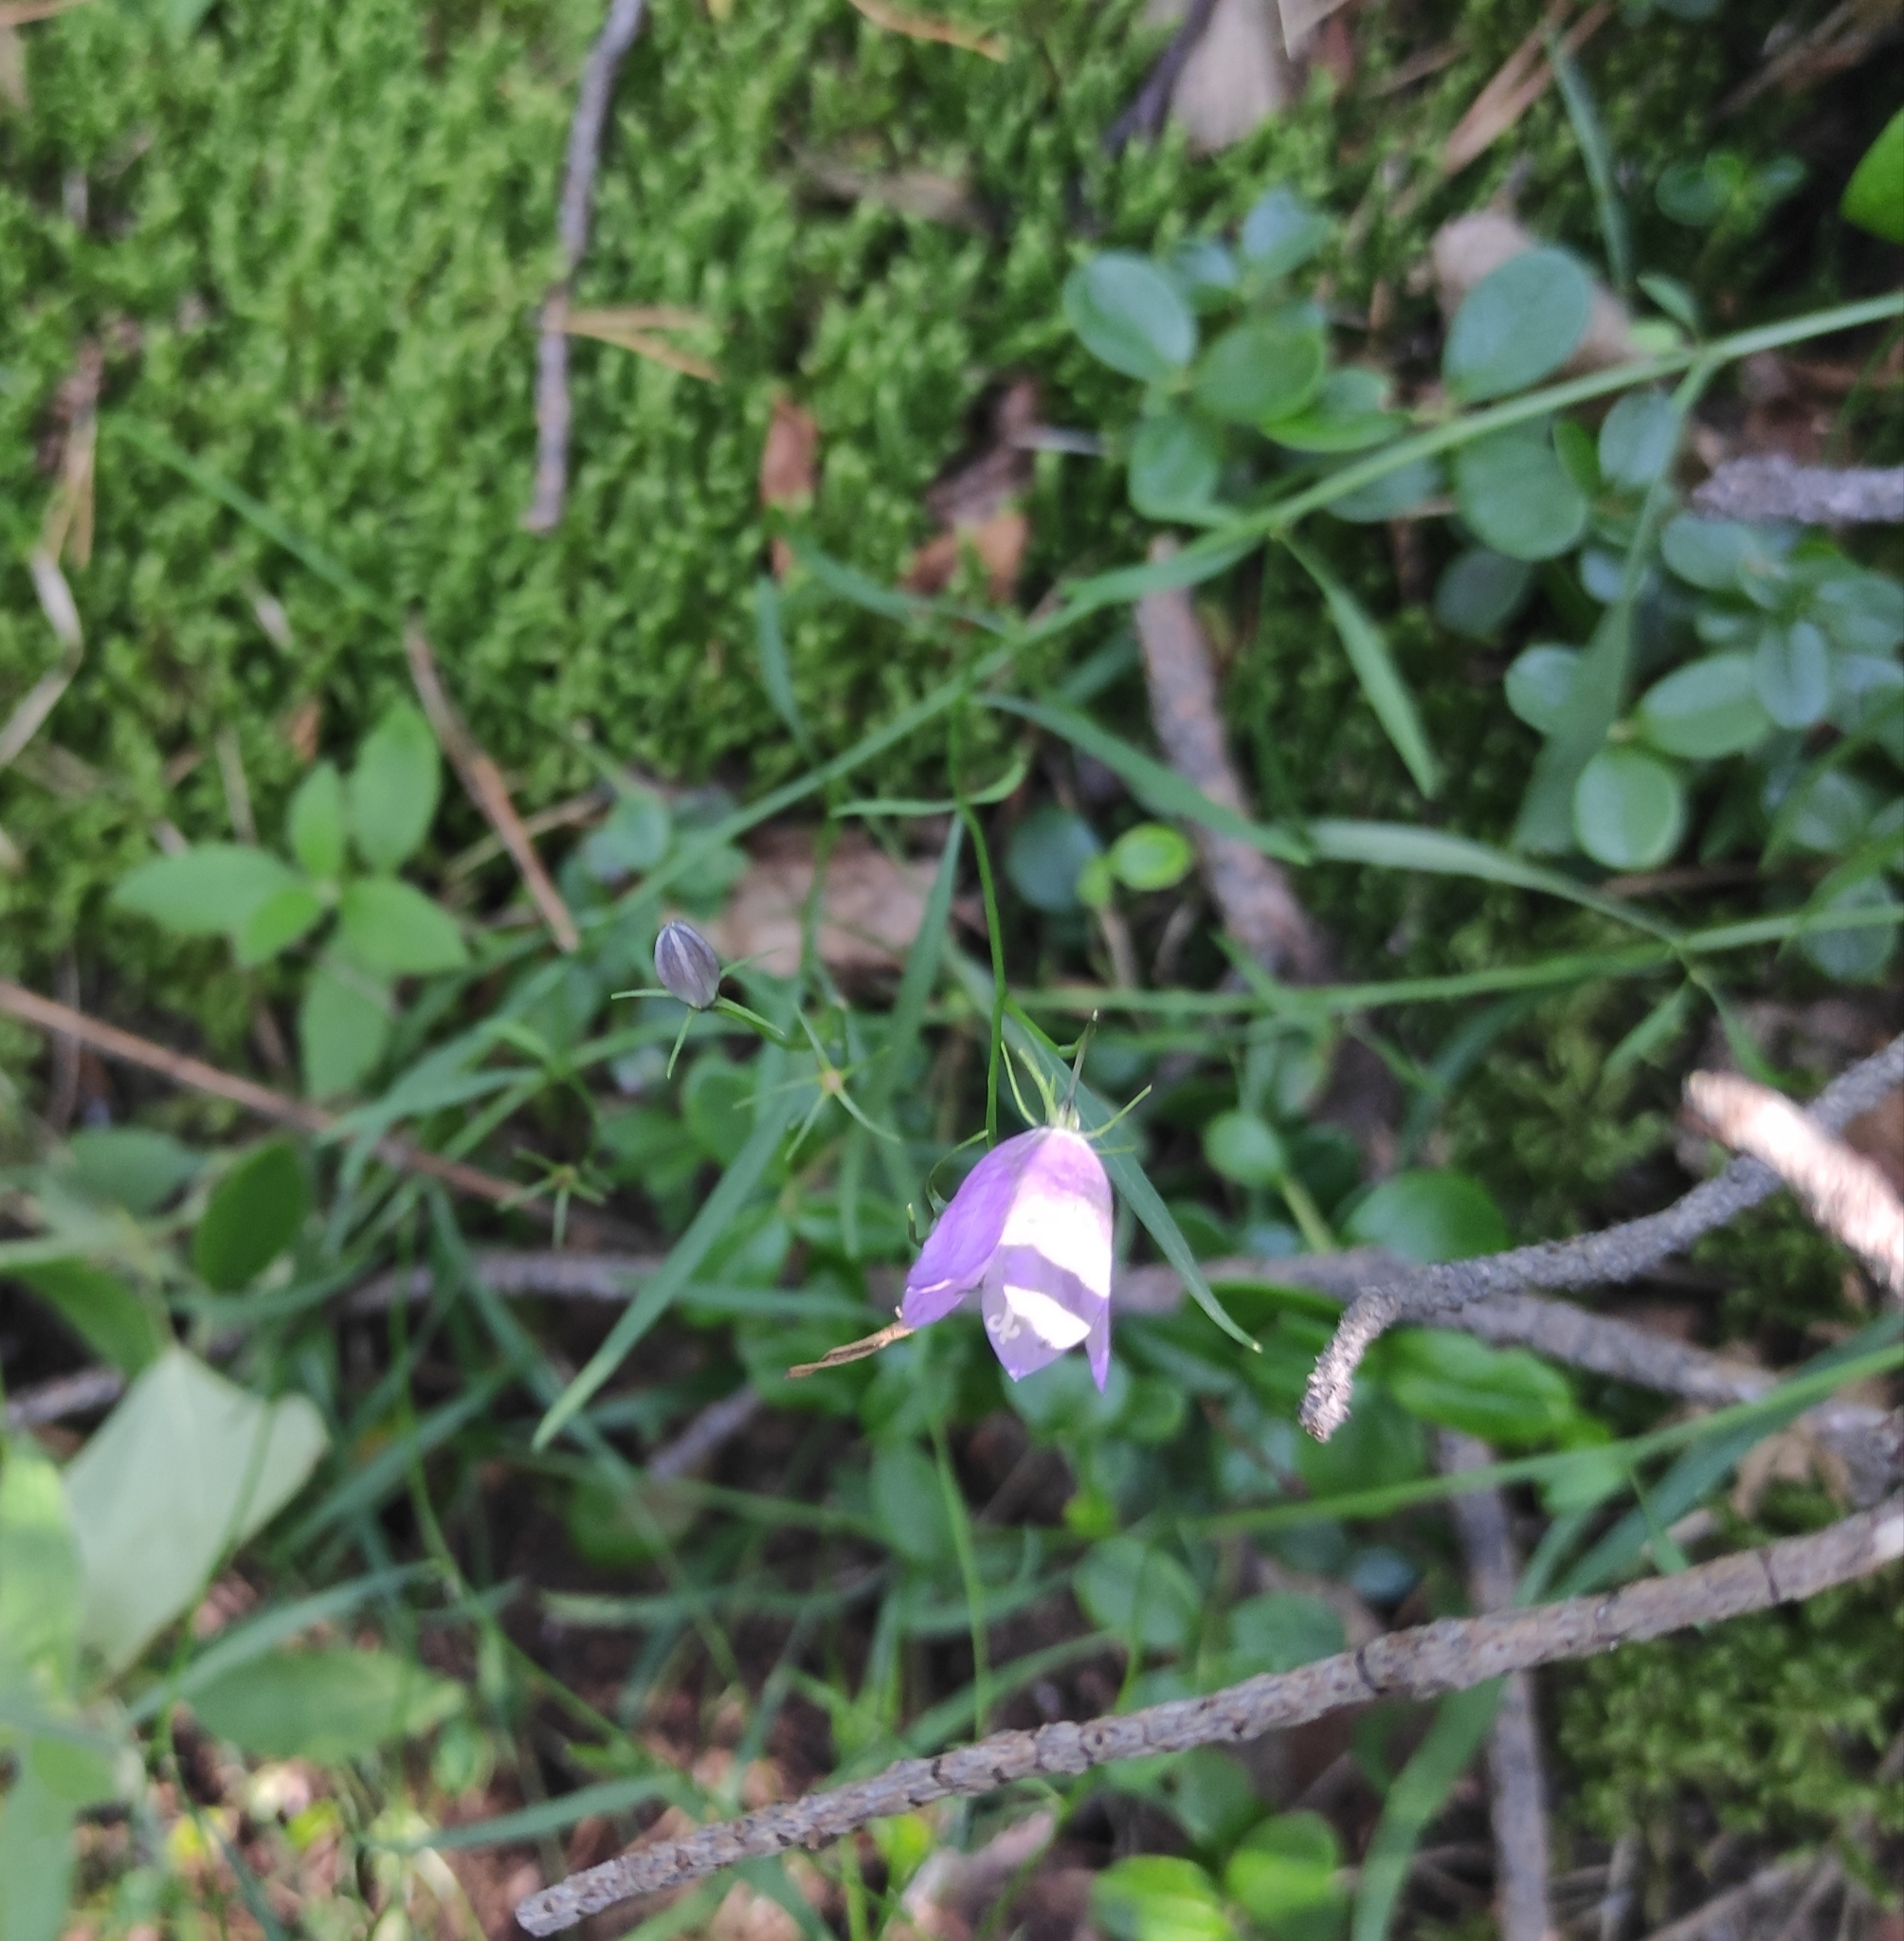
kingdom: Plantae
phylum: Tracheophyta
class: Magnoliopsida
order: Asterales
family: Campanulaceae
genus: Campanula
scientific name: Campanula rotundifolia
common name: Harebell
